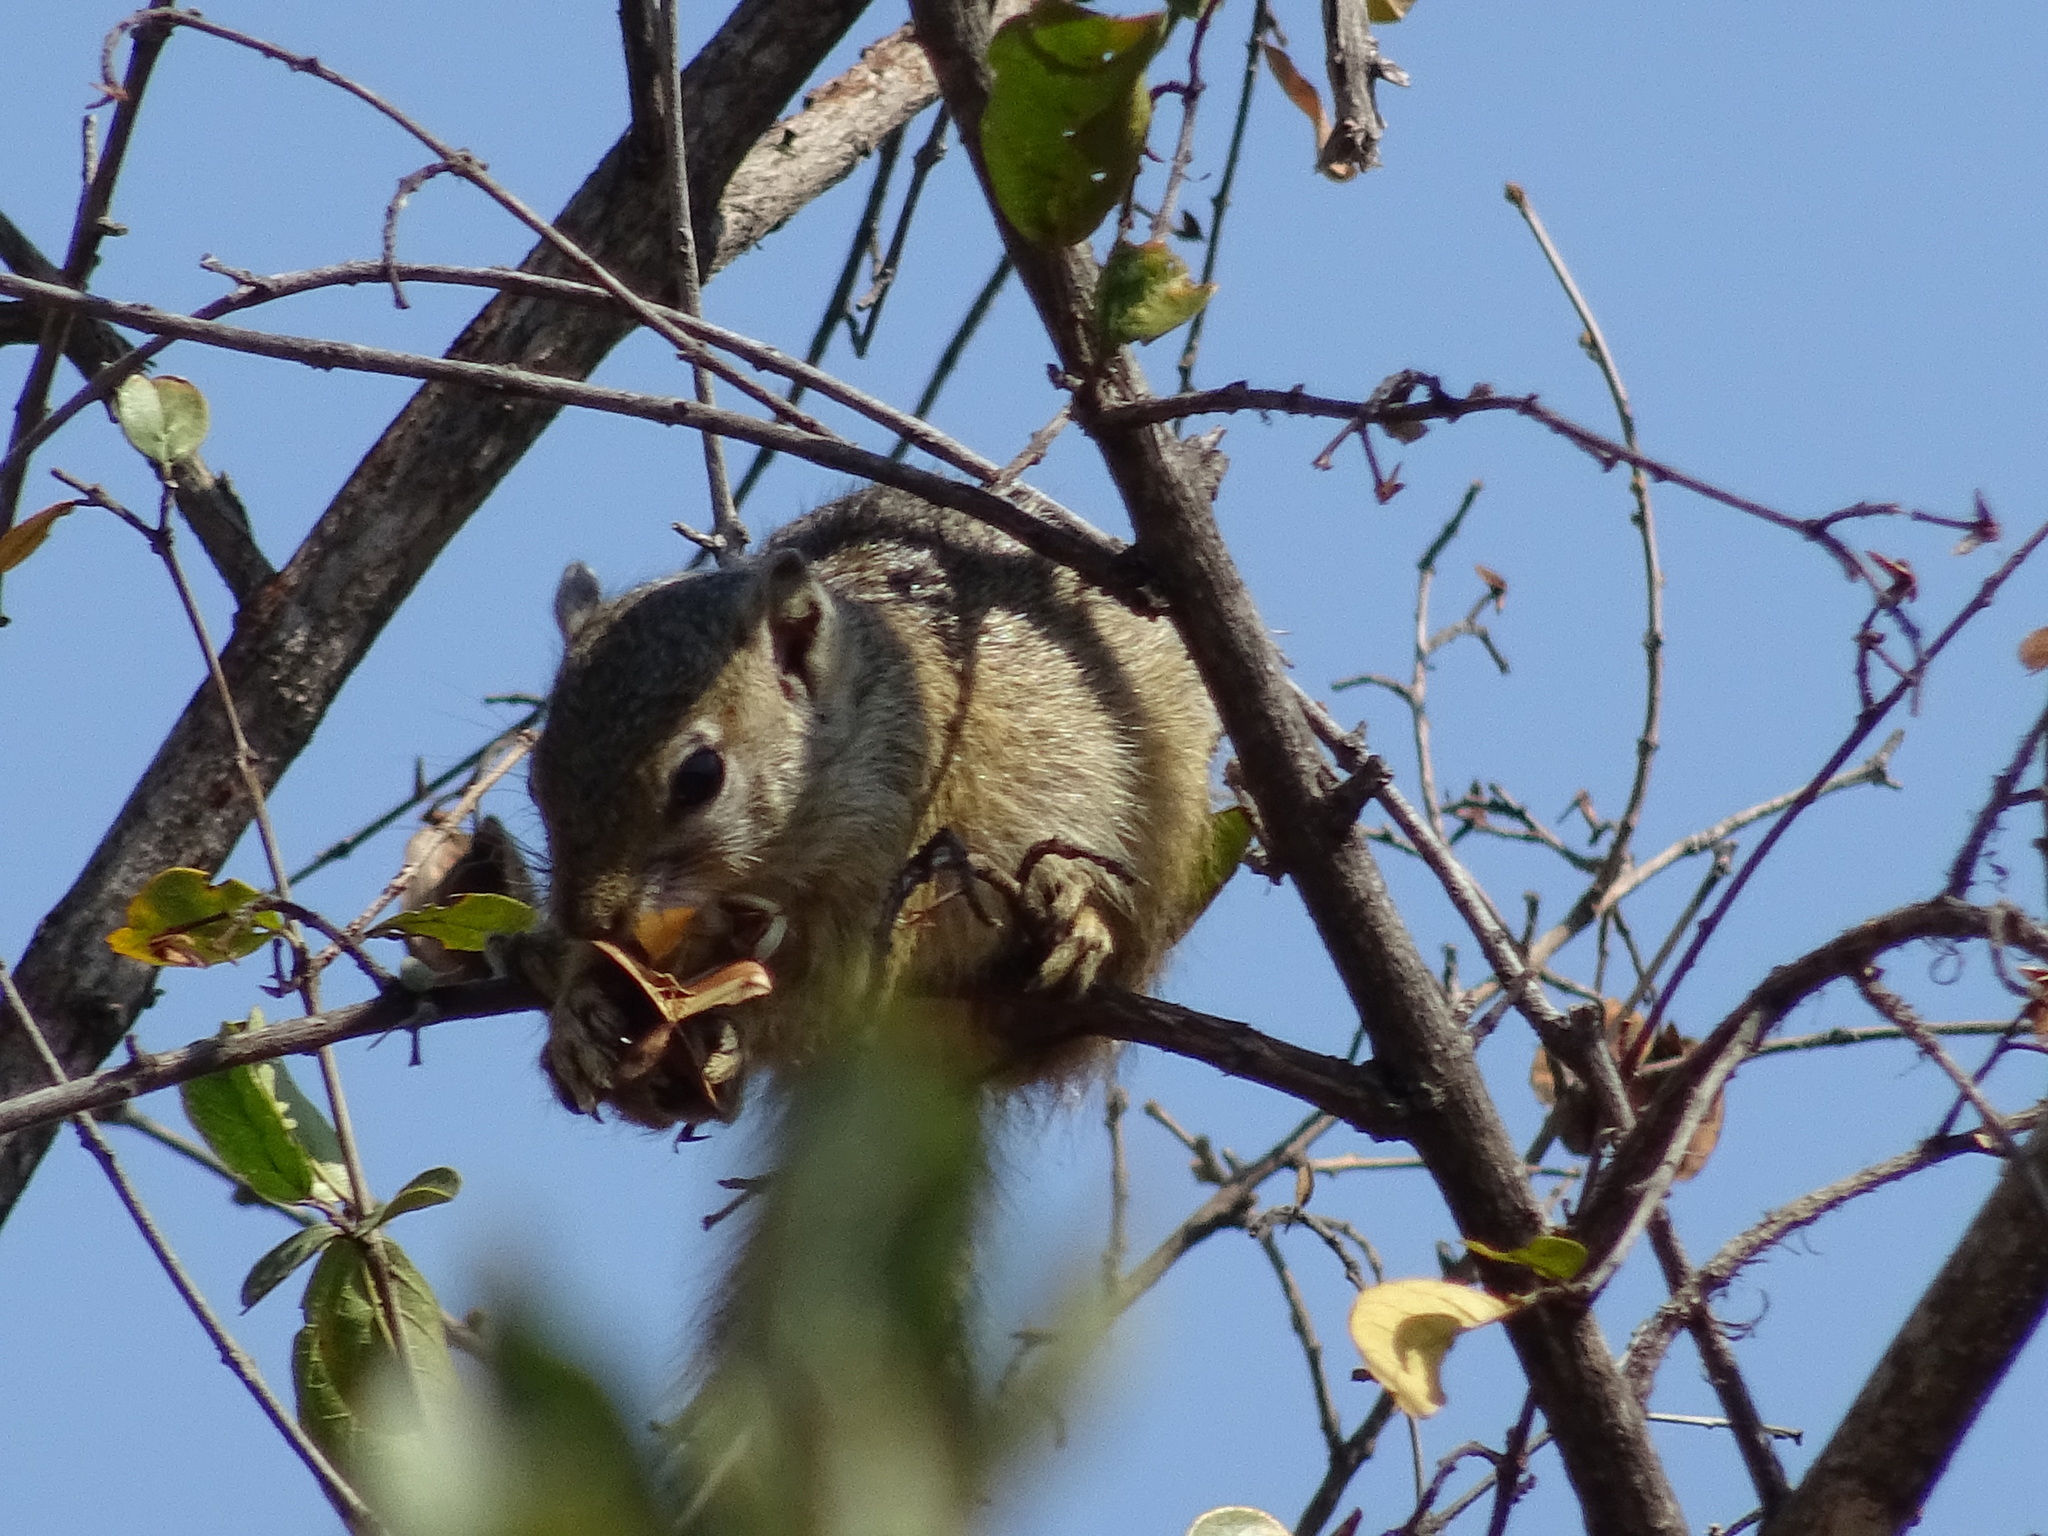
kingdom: Animalia
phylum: Chordata
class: Mammalia
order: Rodentia
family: Sciuridae
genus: Paraxerus
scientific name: Paraxerus cepapi
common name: Smith's bush squirrel
